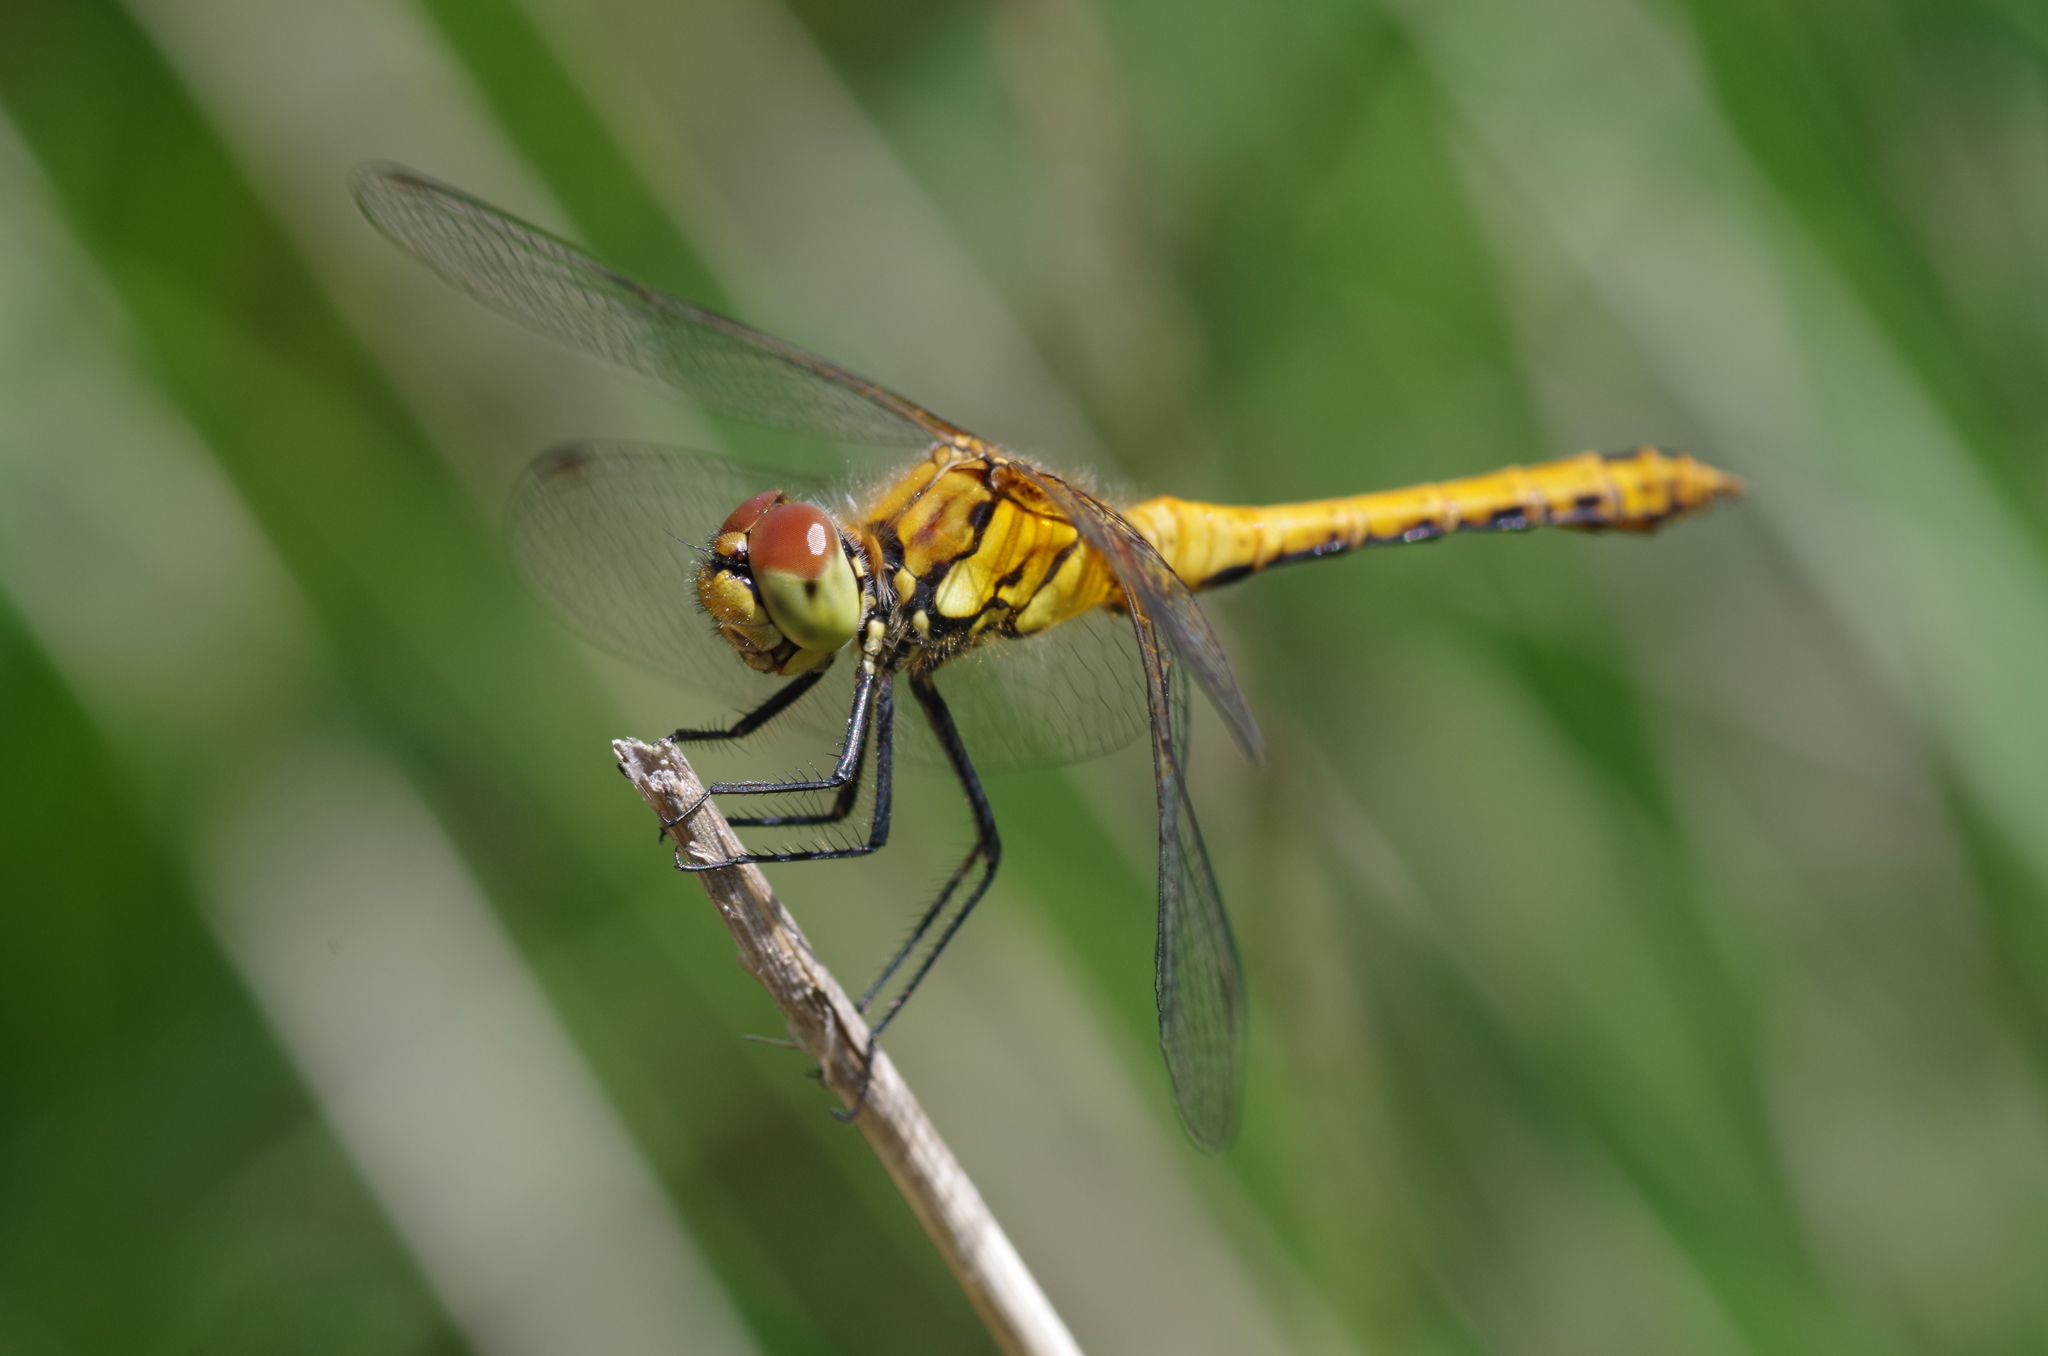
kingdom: Animalia
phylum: Arthropoda
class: Insecta
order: Odonata
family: Libellulidae
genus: Sympetrum
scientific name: Sympetrum sanguineum
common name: Ruddy darter
